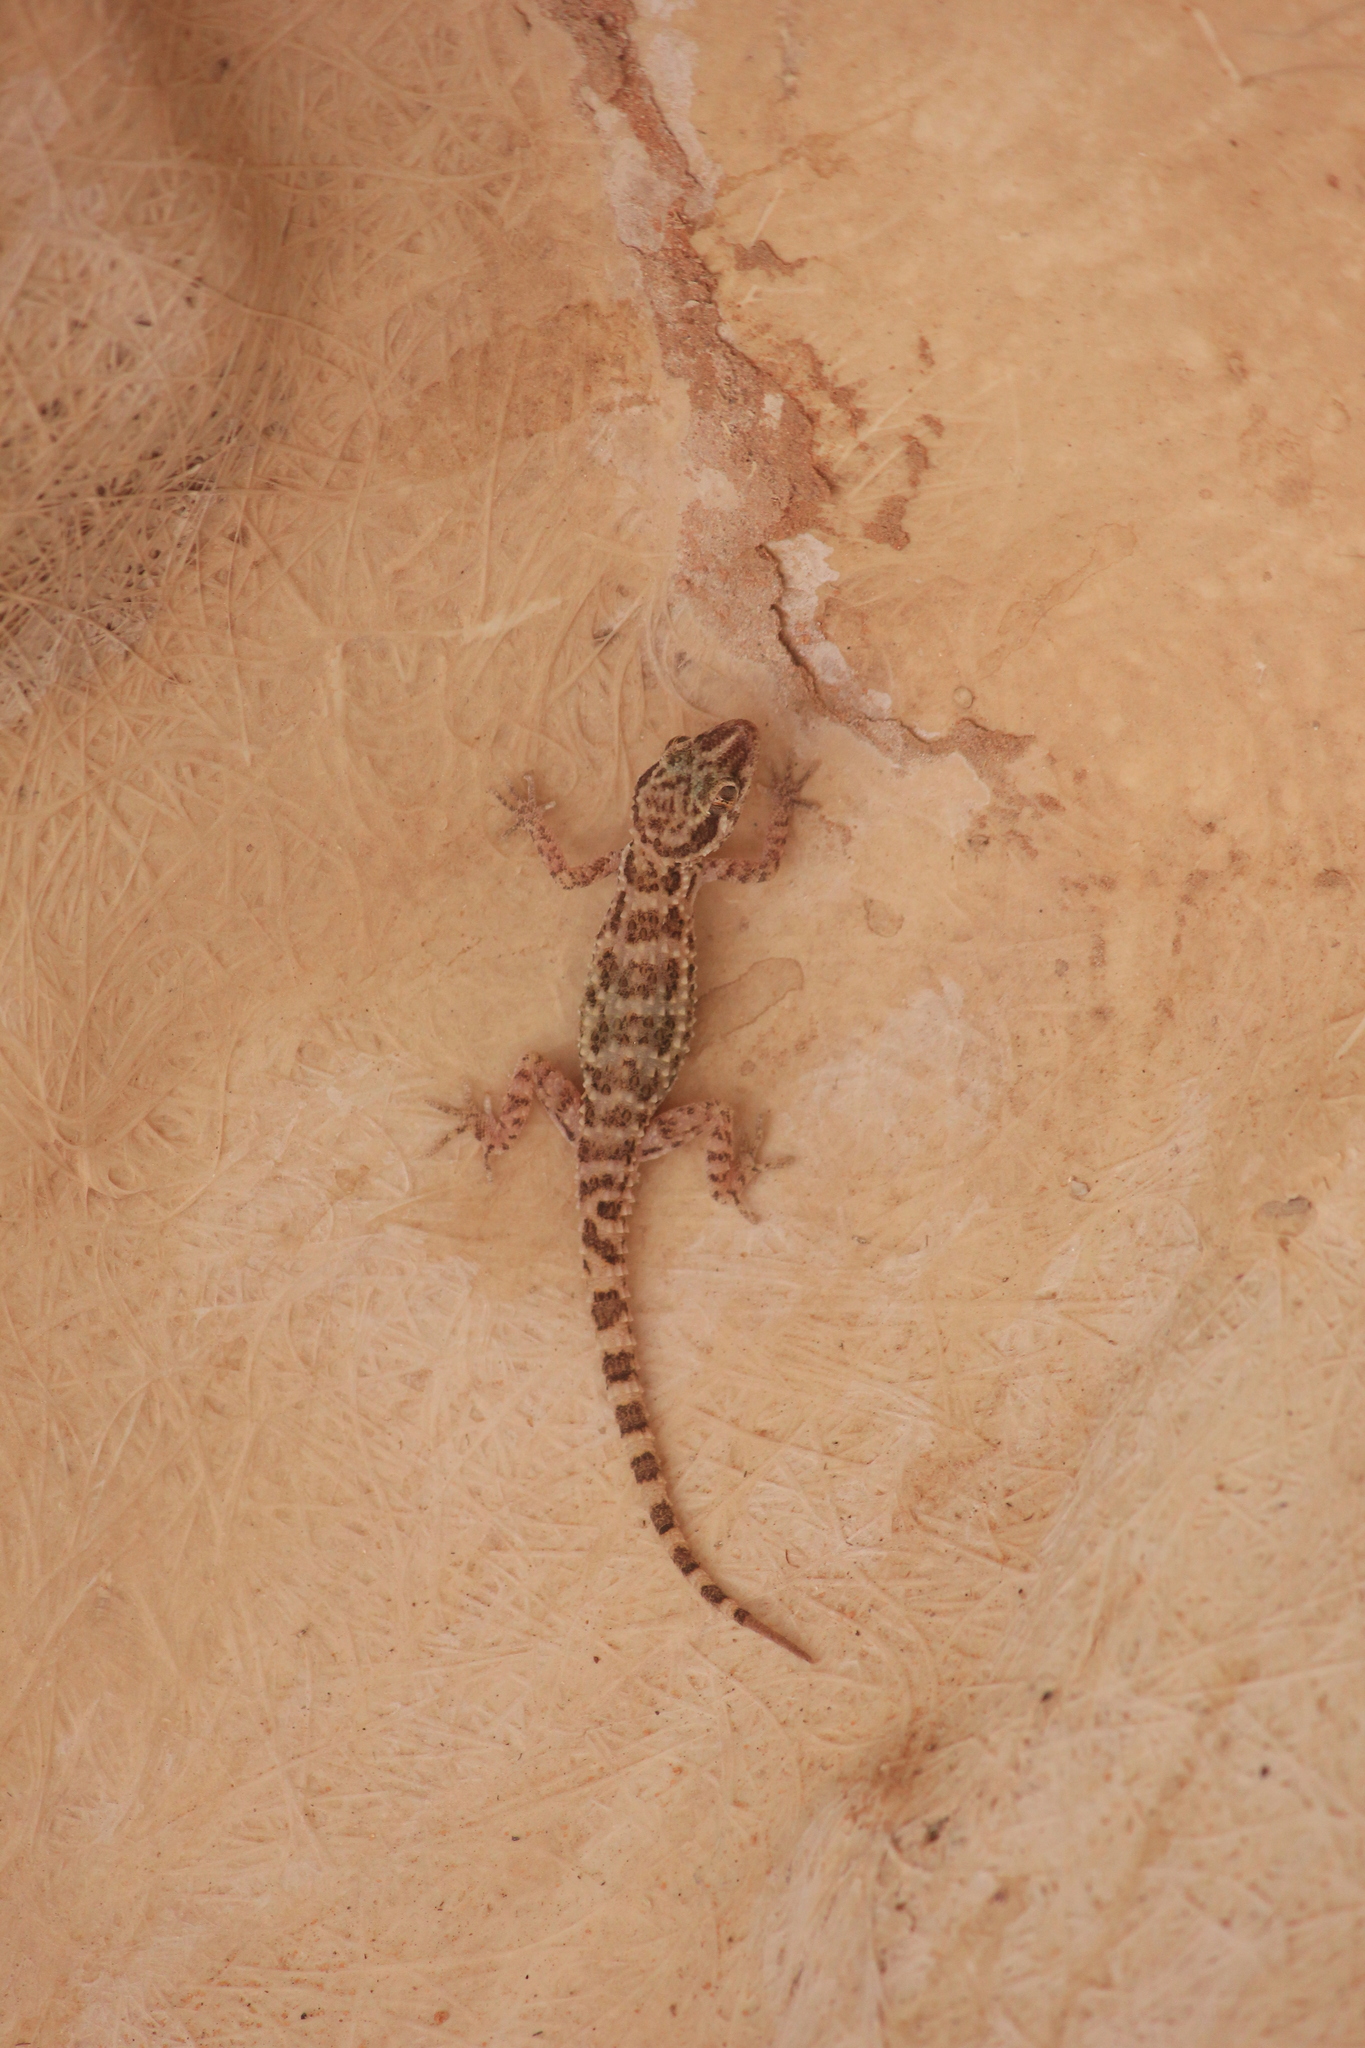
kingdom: Animalia
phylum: Chordata
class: Squamata
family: Gekkonidae
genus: Bunopus
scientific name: Bunopus tuberculatus
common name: Southern tuberculated gecko
